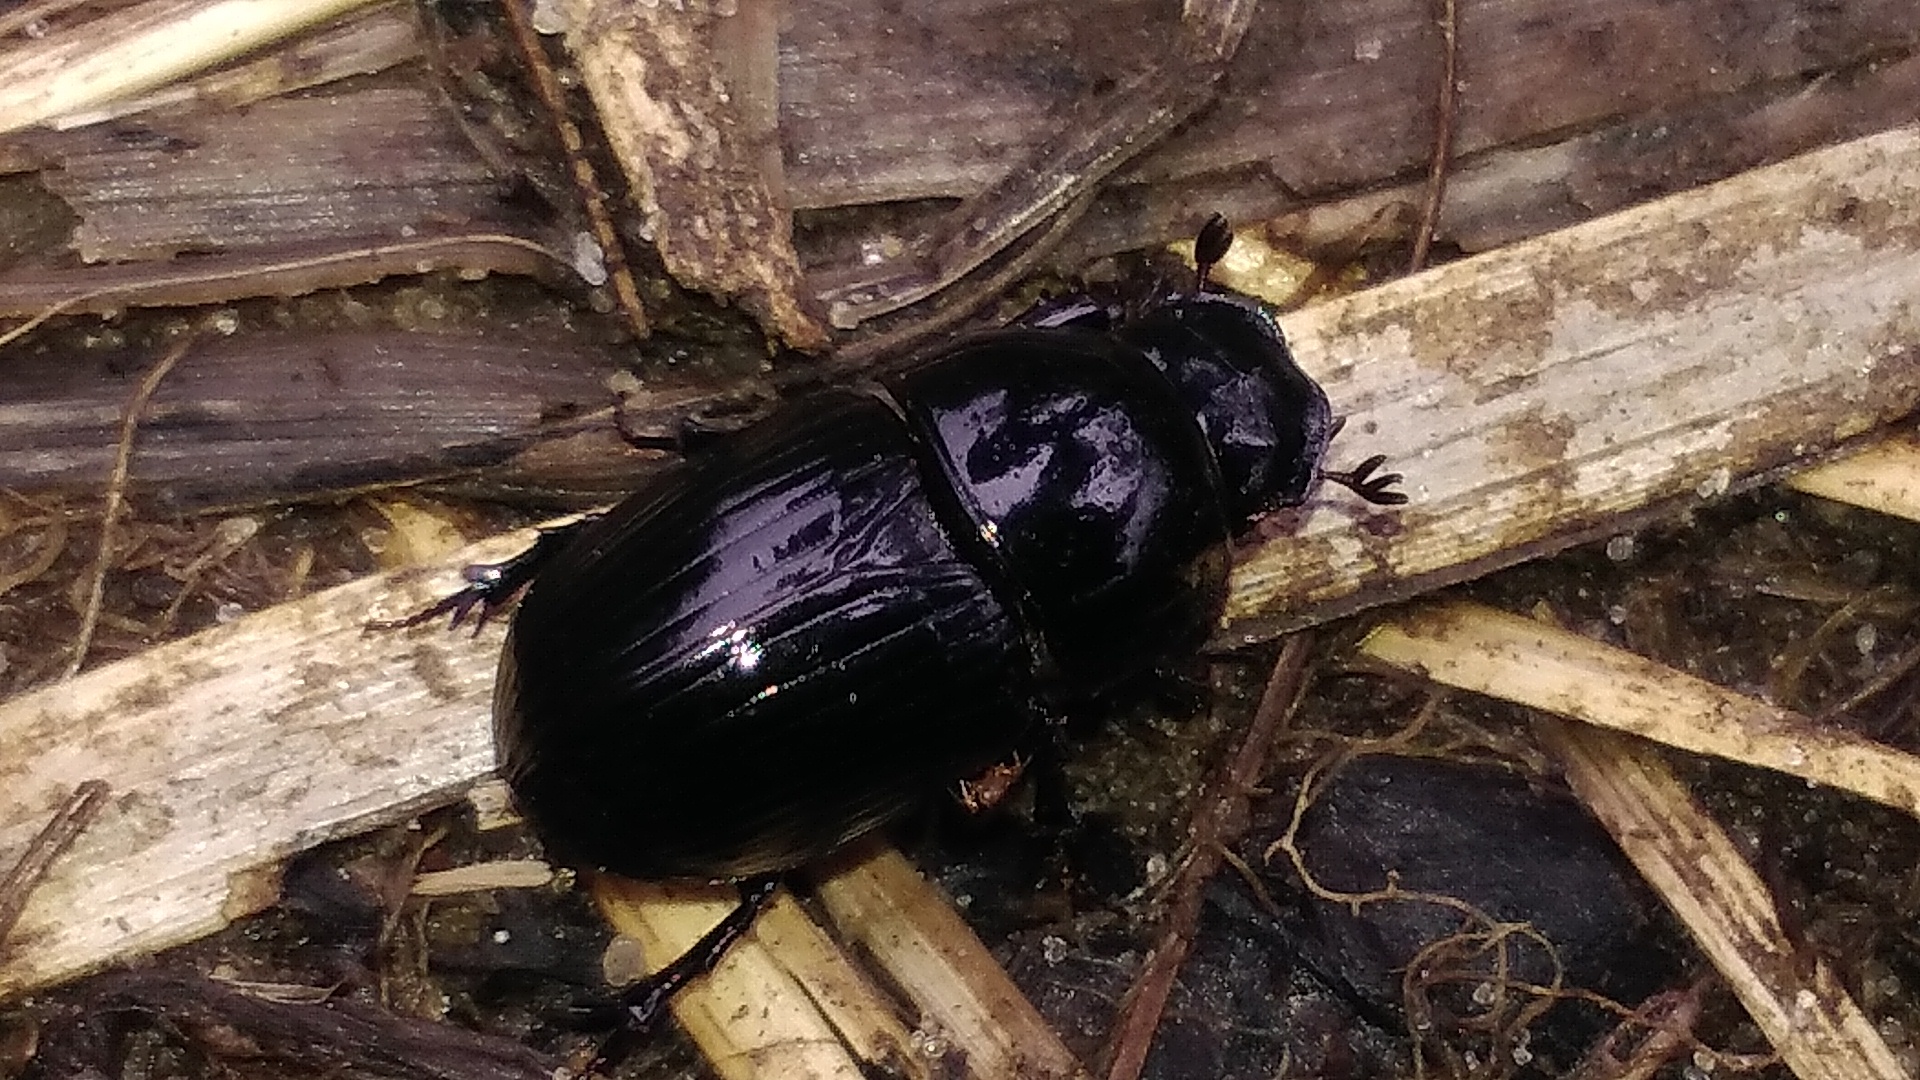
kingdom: Animalia
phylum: Arthropoda
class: Insecta
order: Coleoptera
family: Scarabaeidae
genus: Teuchestes
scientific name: Teuchestes fossor
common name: Digger small dung beetle
